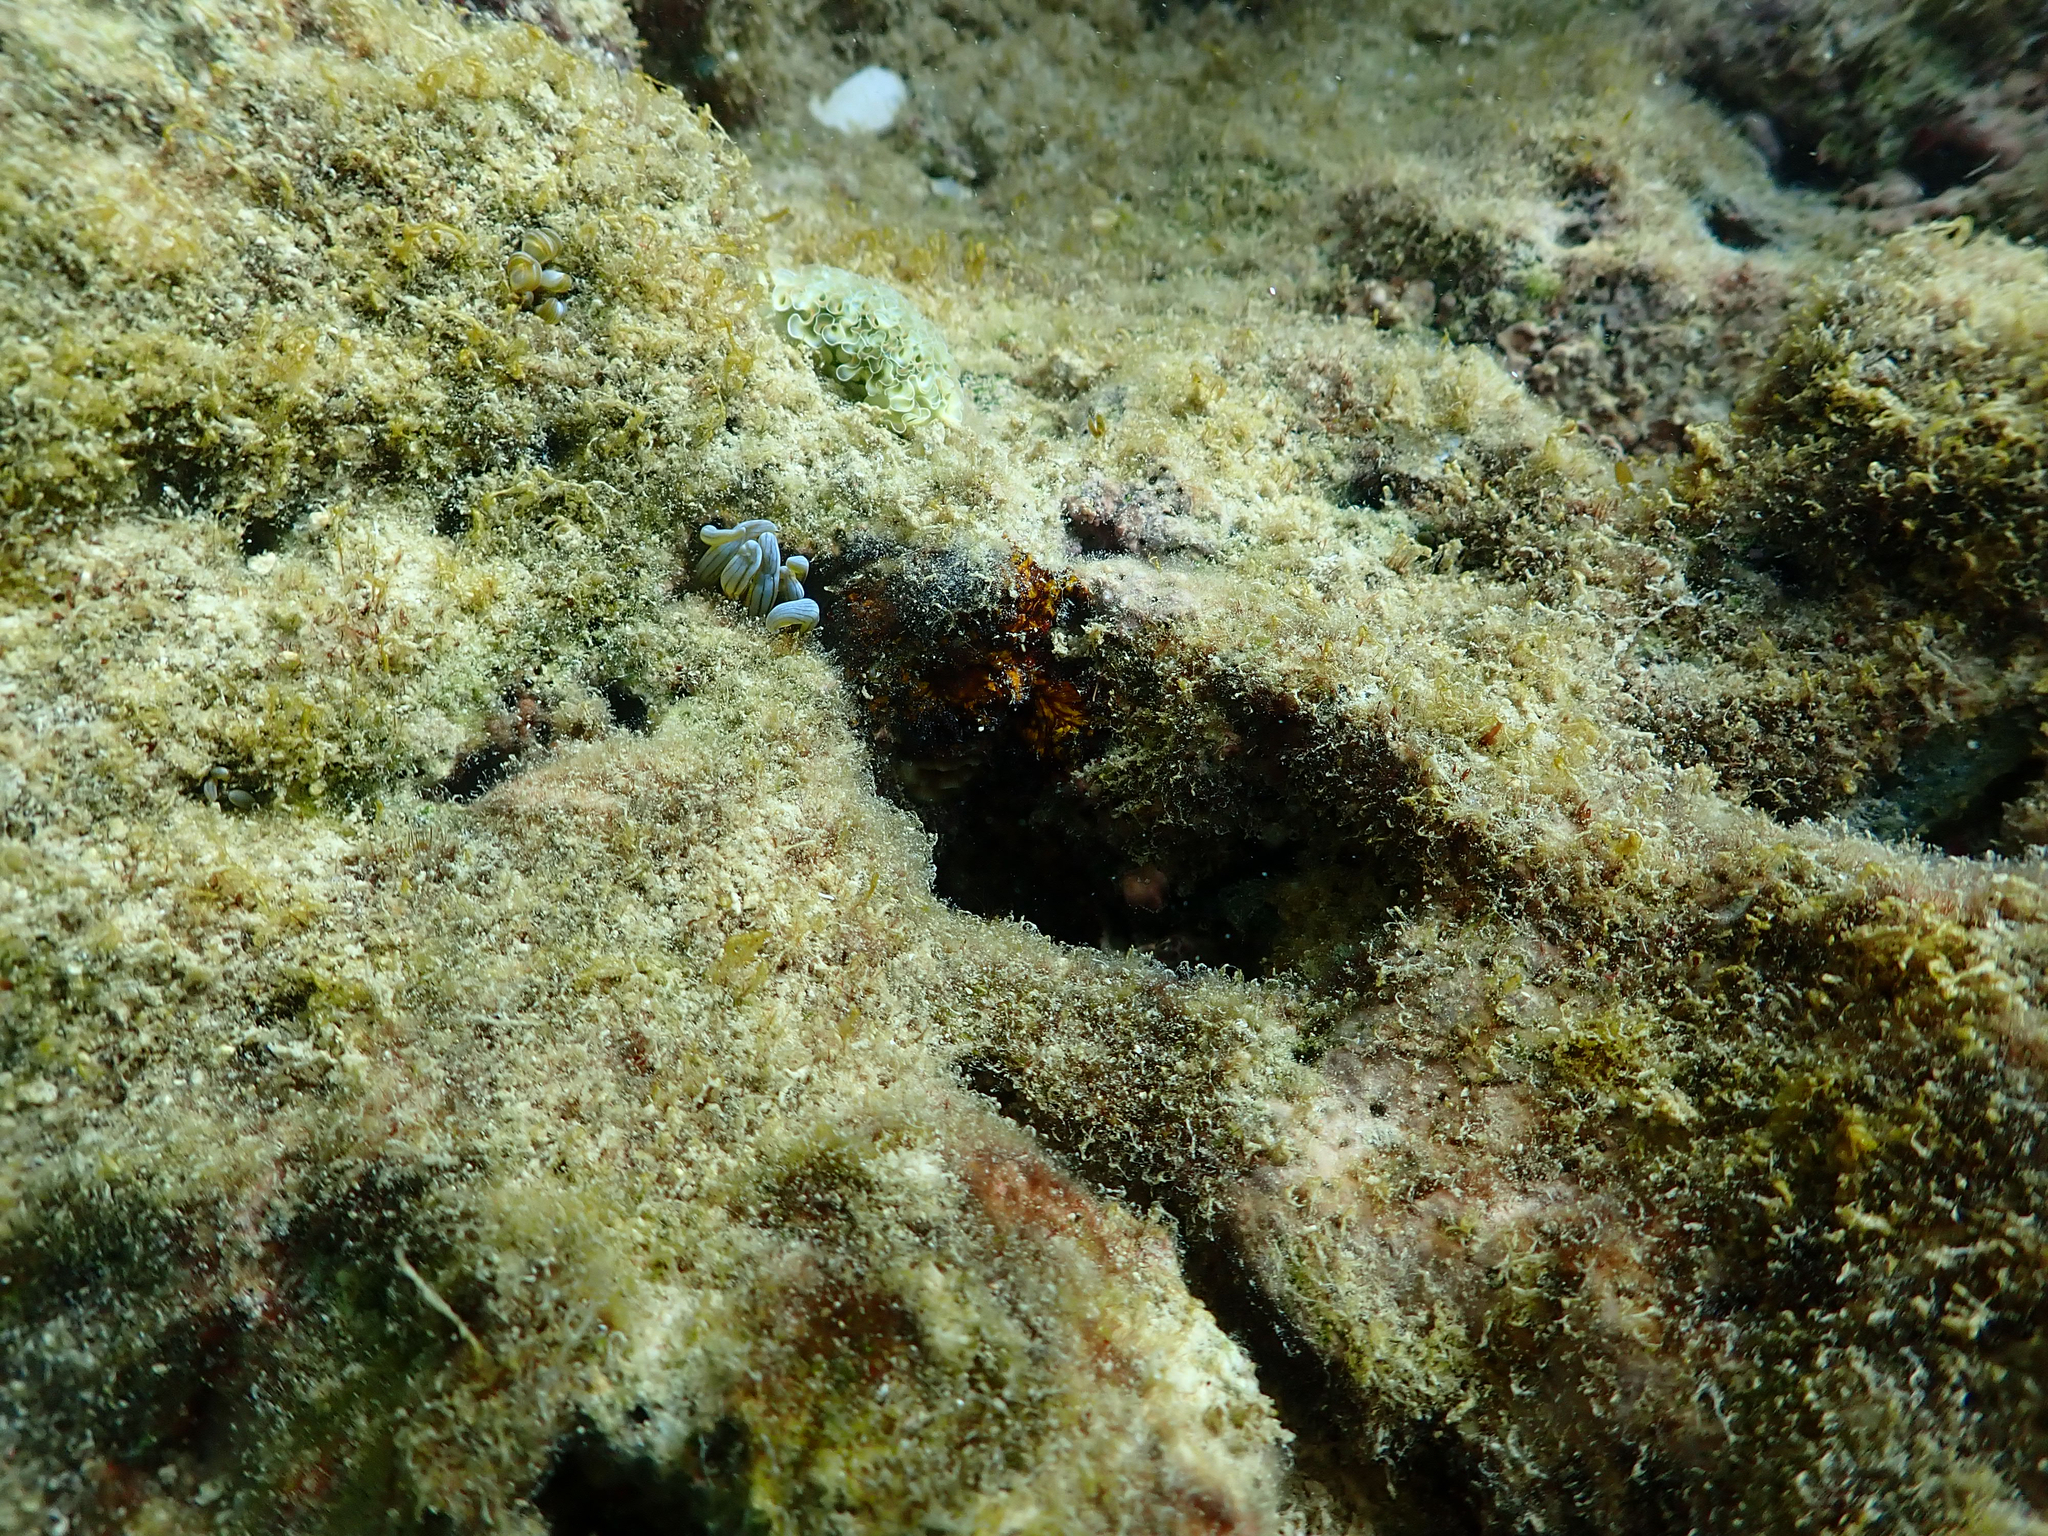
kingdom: Animalia
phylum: Cnidaria
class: Anthozoa
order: Actiniaria
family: Aliciidae
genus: Lebrunia
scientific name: Lebrunia coralligens
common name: Hidden anemone
